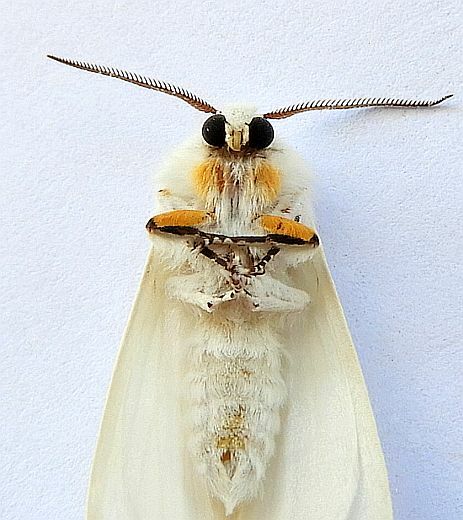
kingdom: Animalia
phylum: Arthropoda
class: Insecta
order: Lepidoptera
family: Erebidae
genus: Hyphantria
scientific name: Hyphantria cunea
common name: American white moth
